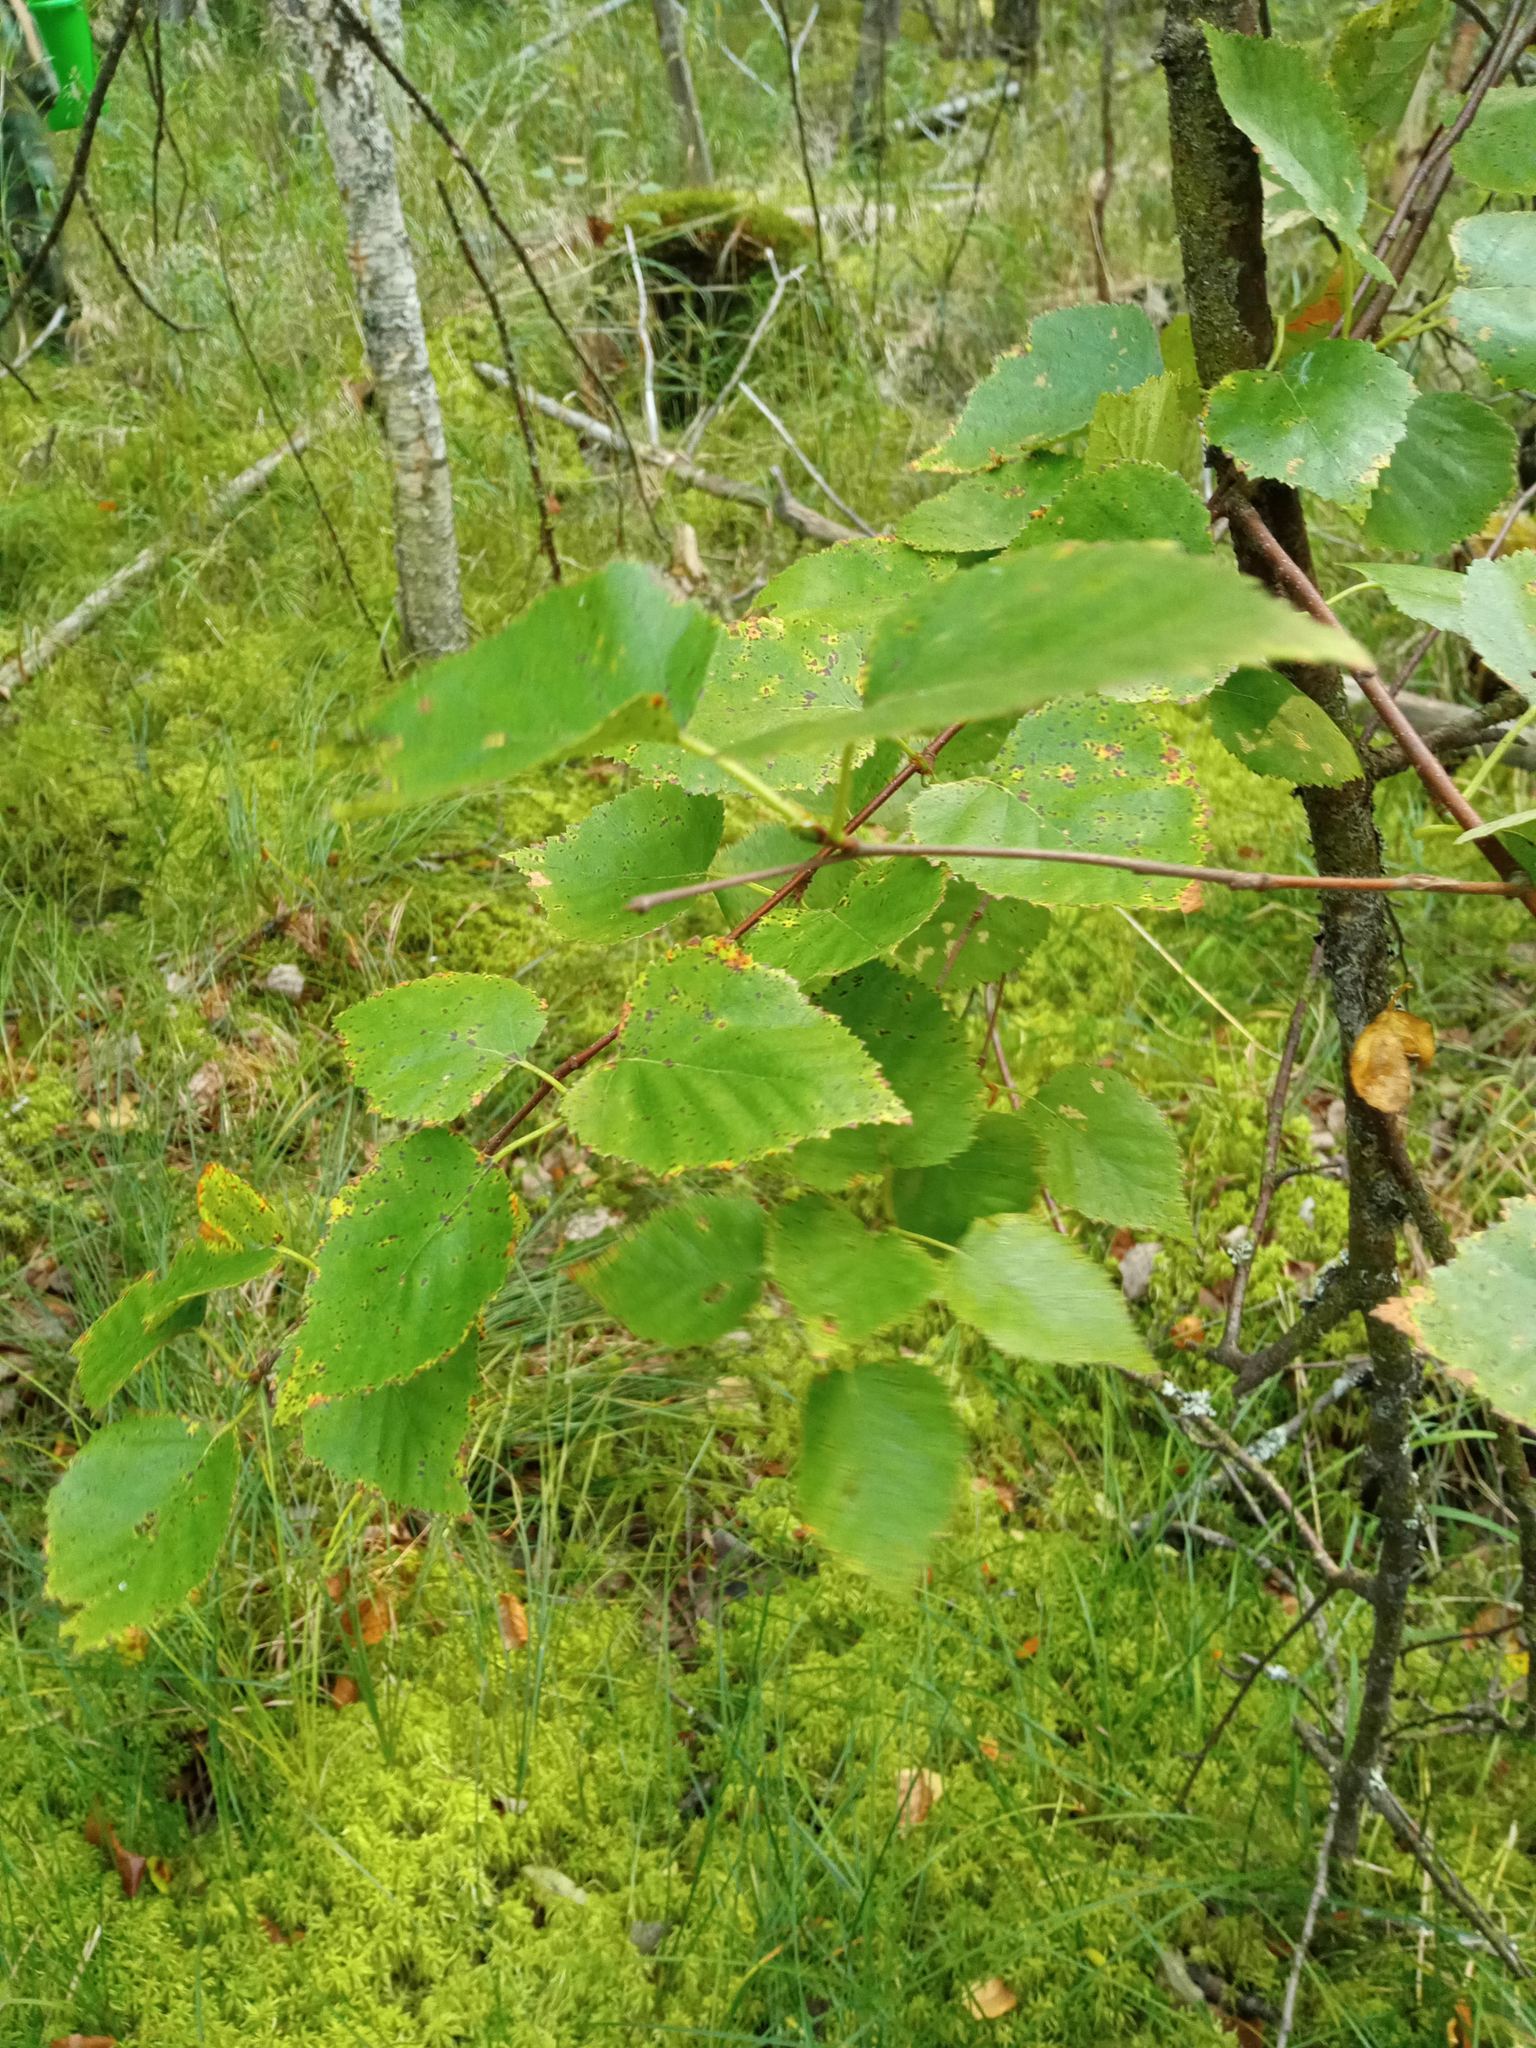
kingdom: Plantae
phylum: Tracheophyta
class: Magnoliopsida
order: Fagales
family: Betulaceae
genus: Betula
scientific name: Betula pubescens
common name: Downy birch
